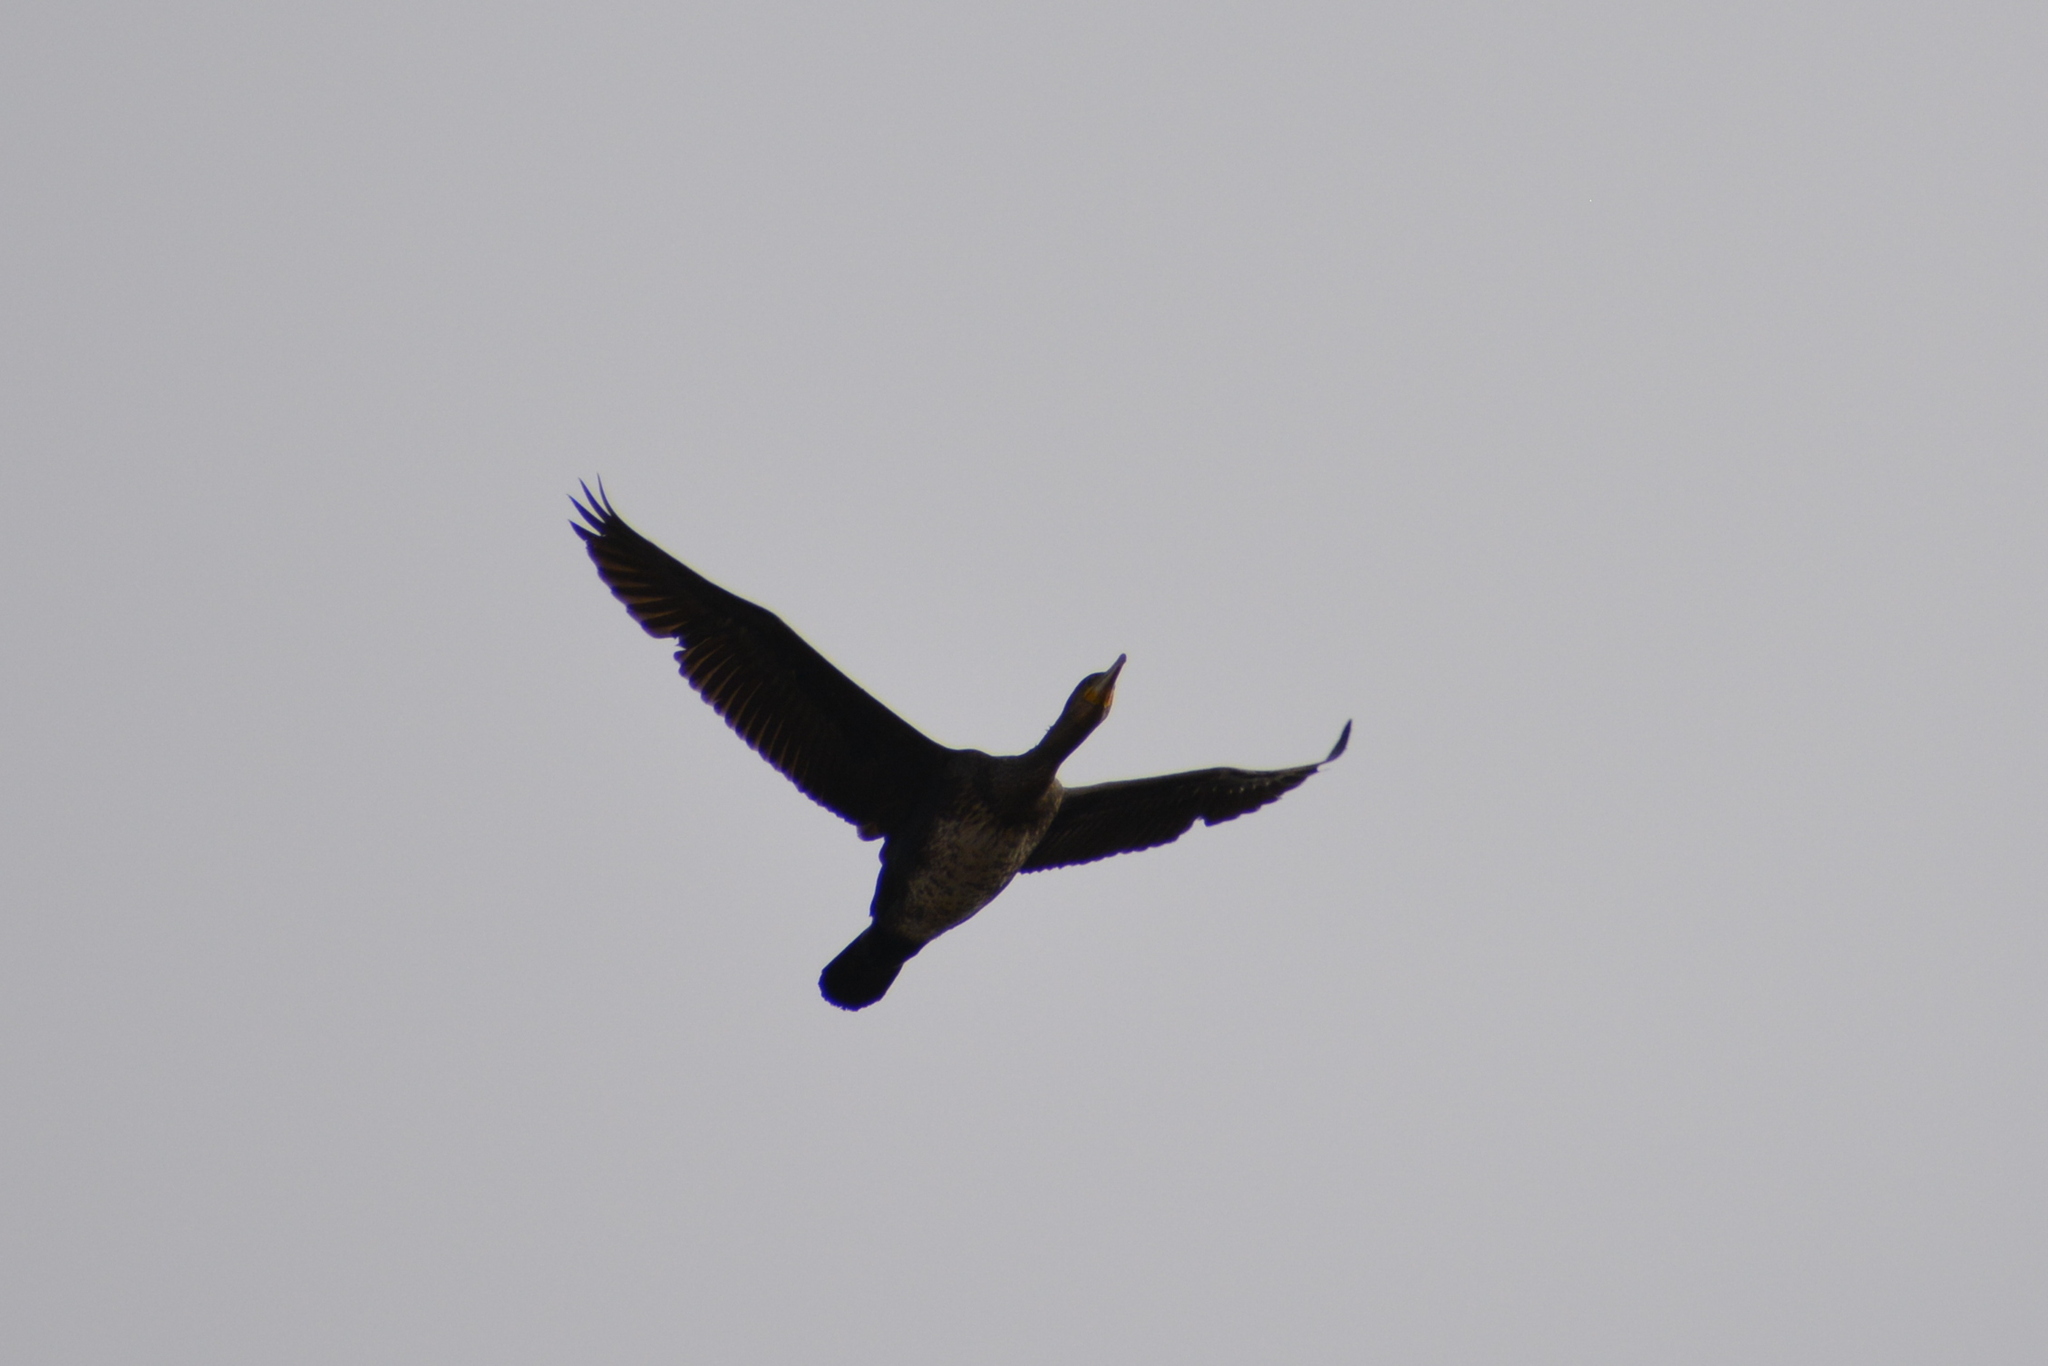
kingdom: Animalia
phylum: Chordata
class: Aves
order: Suliformes
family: Phalacrocoracidae
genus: Phalacrocorax
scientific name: Phalacrocorax carbo
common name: Great cormorant
